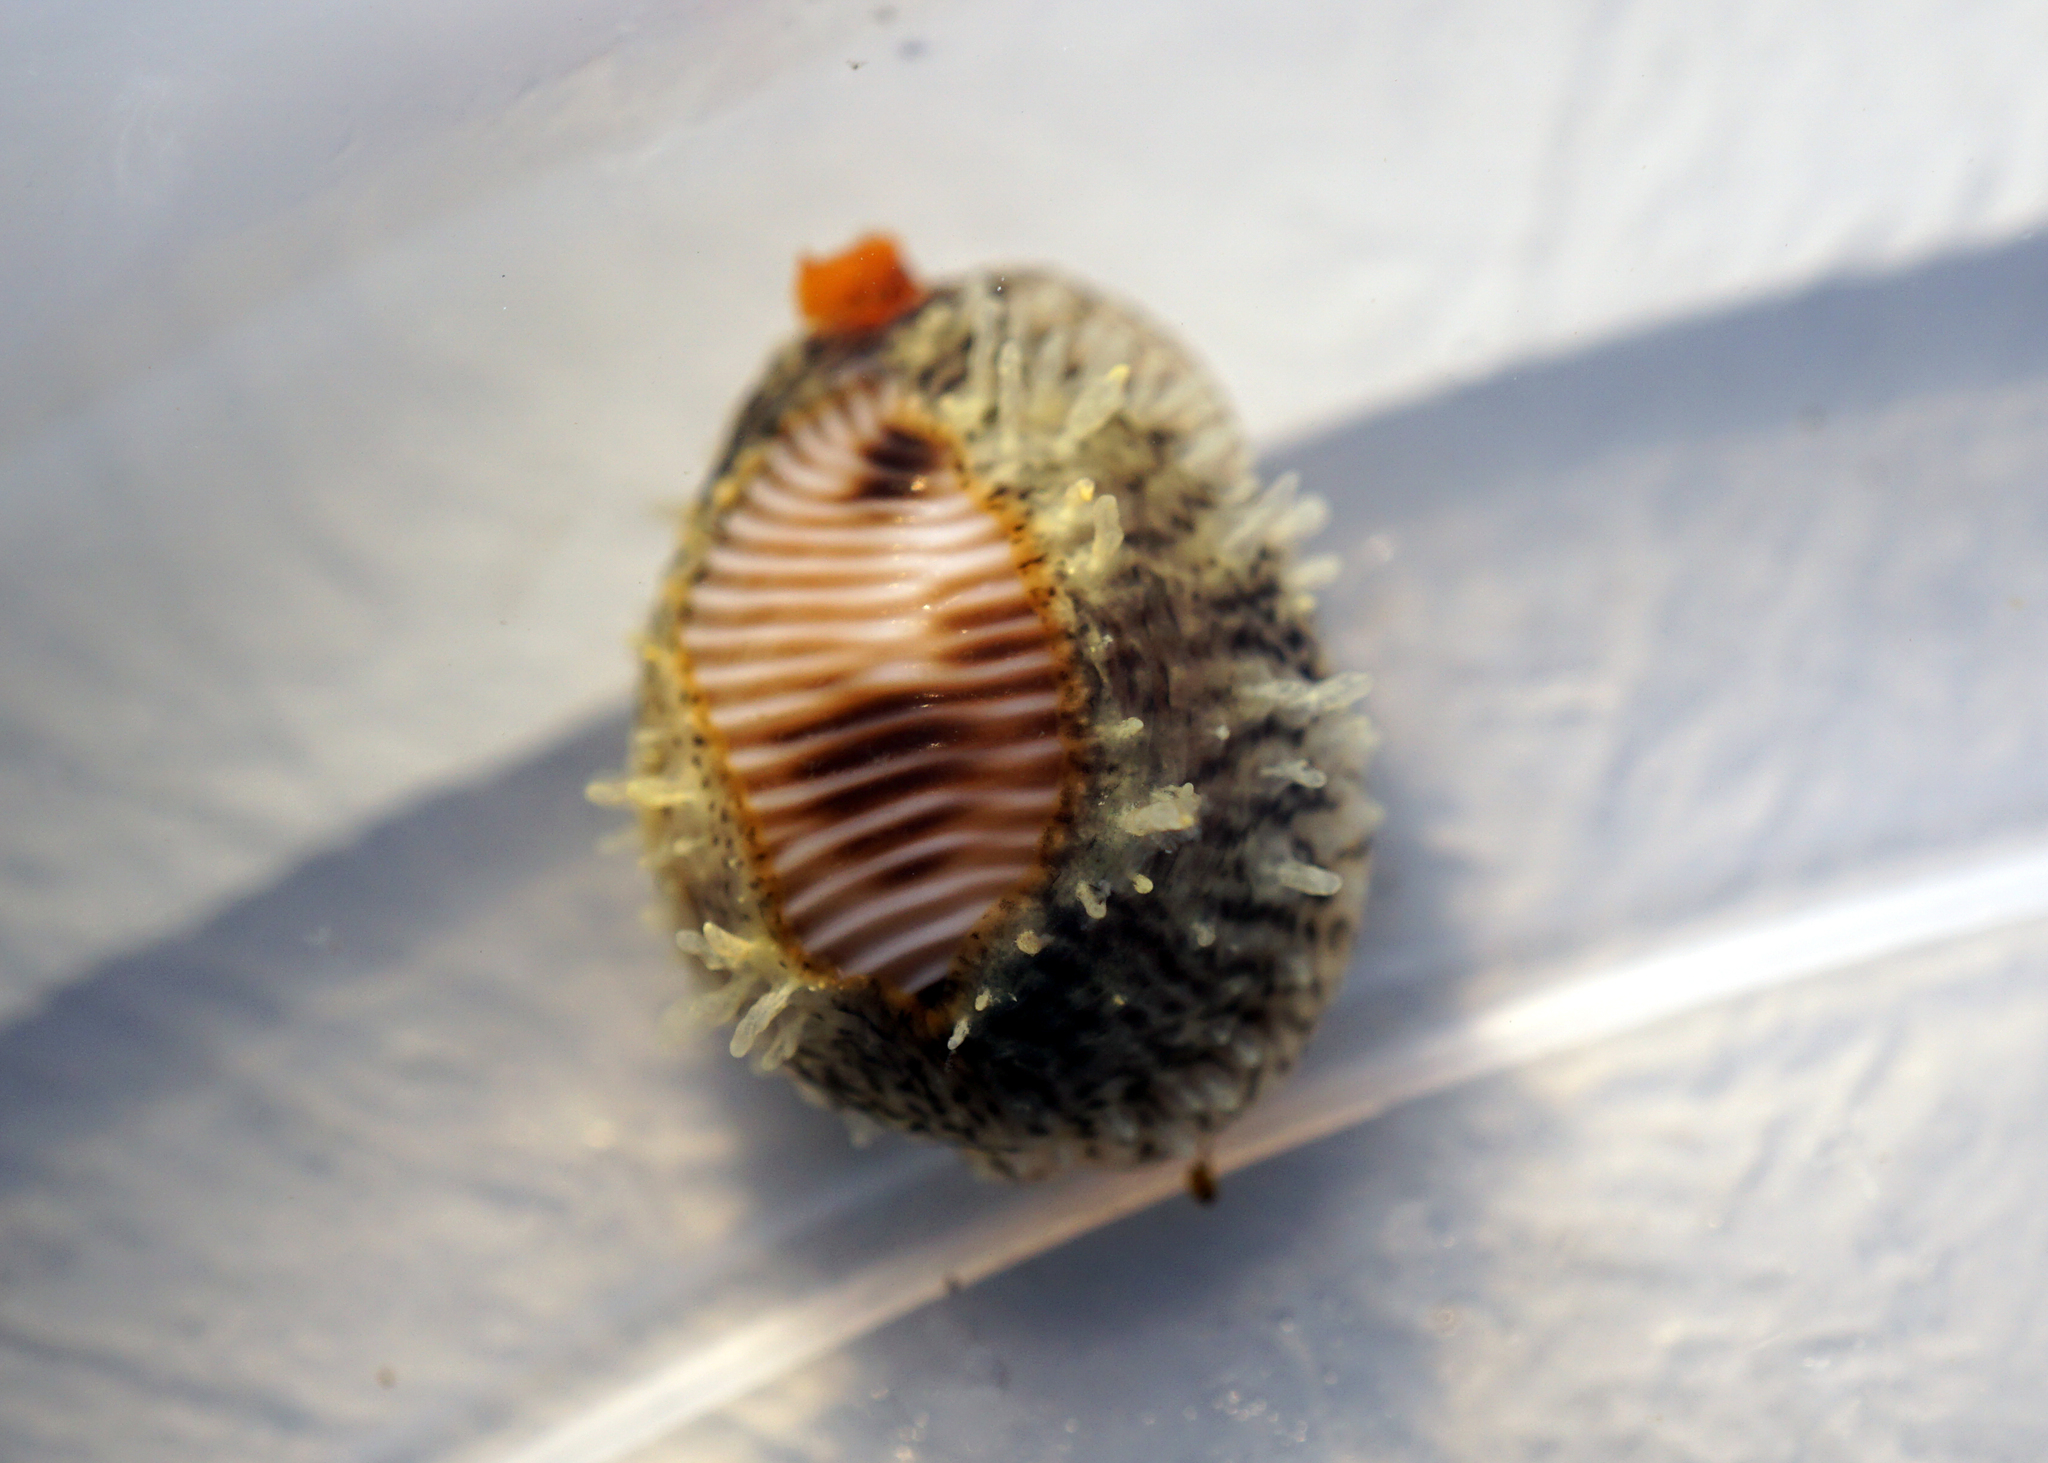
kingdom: Animalia
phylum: Mollusca
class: Gastropoda
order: Littorinimorpha
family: Triviidae
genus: Trivia
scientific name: Trivia monacha
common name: Spotted cowrie
